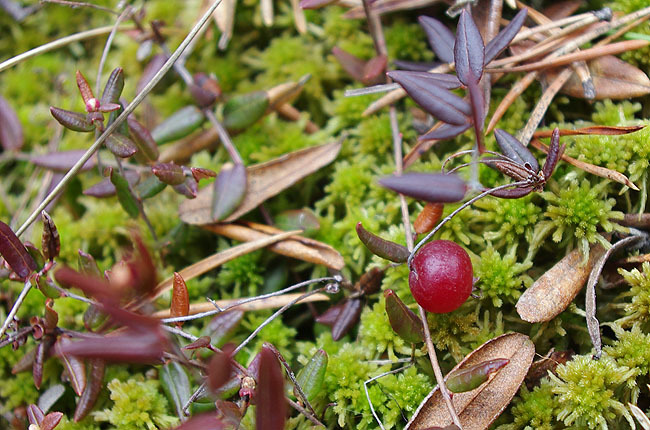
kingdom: Plantae
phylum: Tracheophyta
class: Magnoliopsida
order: Ericales
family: Ericaceae
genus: Vaccinium
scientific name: Vaccinium oxycoccos
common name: Cranberry
